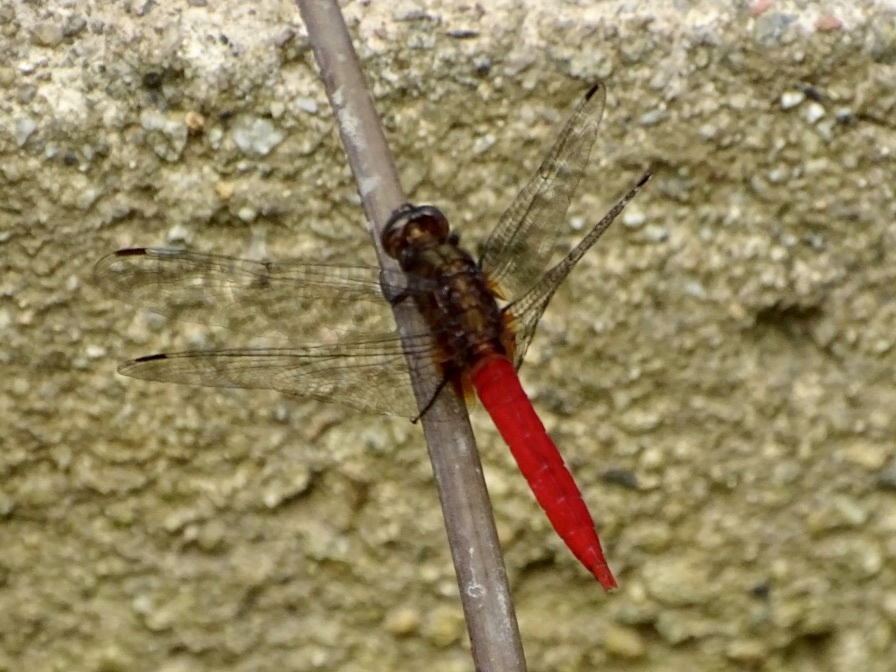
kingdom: Animalia
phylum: Arthropoda
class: Insecta
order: Odonata
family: Libellulidae
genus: Orthetrum
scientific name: Orthetrum chrysis
